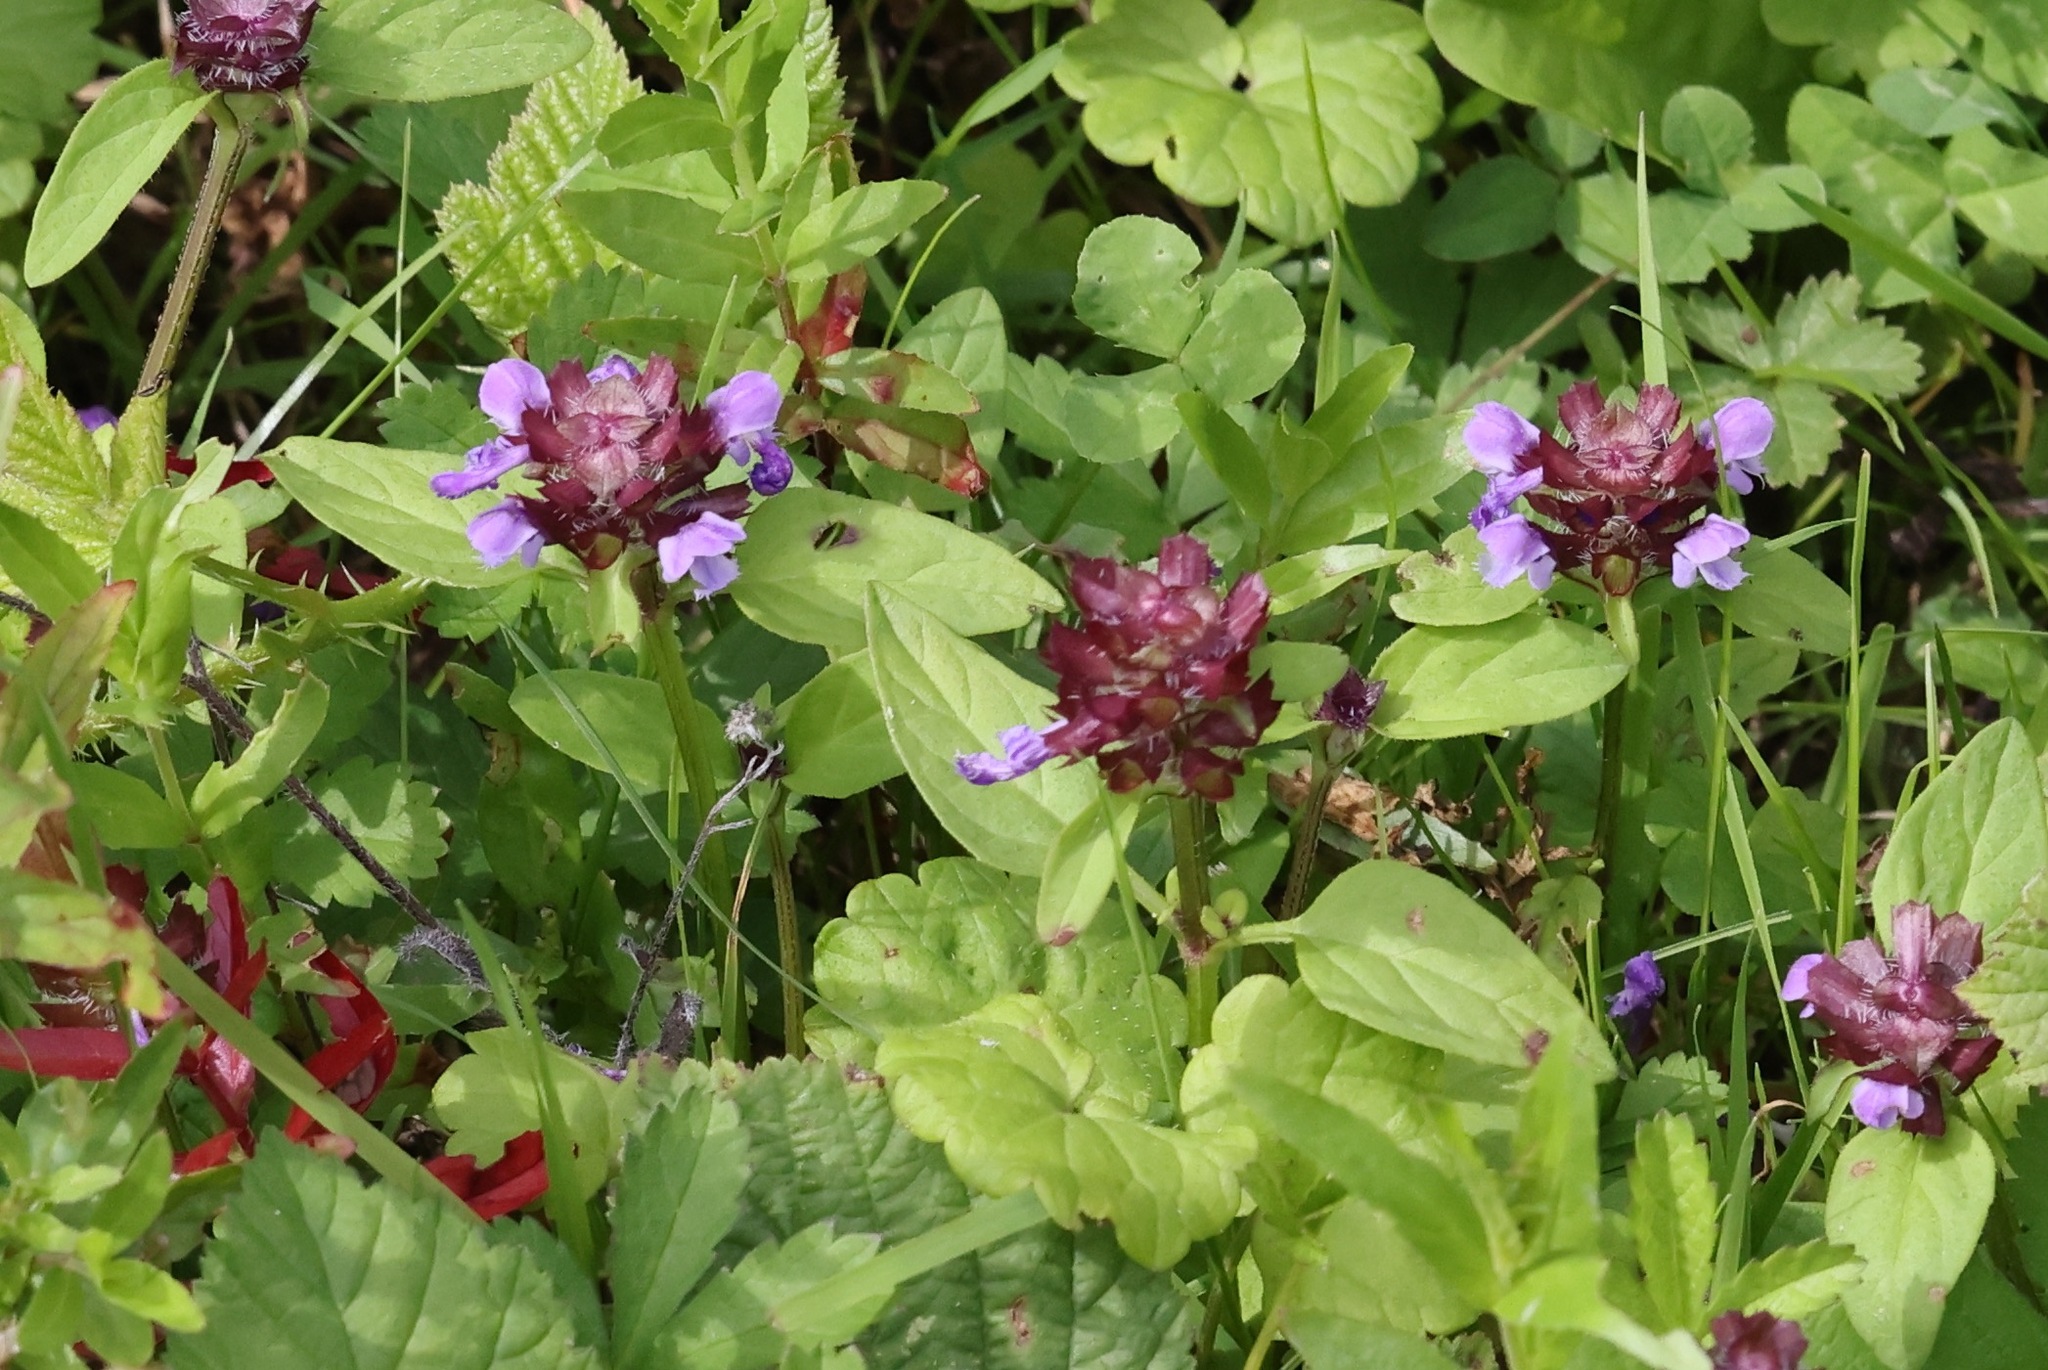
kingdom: Plantae
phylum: Tracheophyta
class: Magnoliopsida
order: Lamiales
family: Lamiaceae
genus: Prunella
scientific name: Prunella vulgaris
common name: Heal-all
